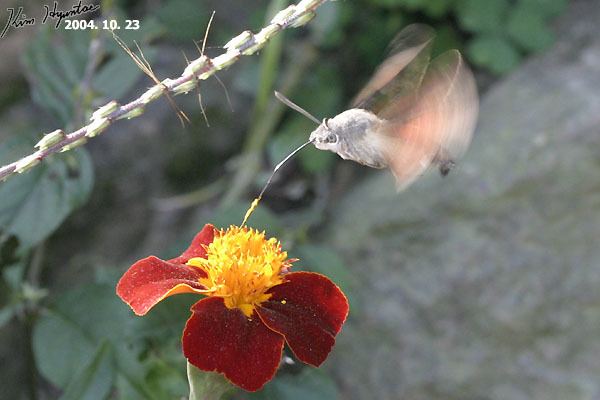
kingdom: Animalia
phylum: Arthropoda
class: Insecta
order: Lepidoptera
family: Sphingidae
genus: Macroglossum
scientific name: Macroglossum stellatarum
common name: Humming-bird hawk-moth
